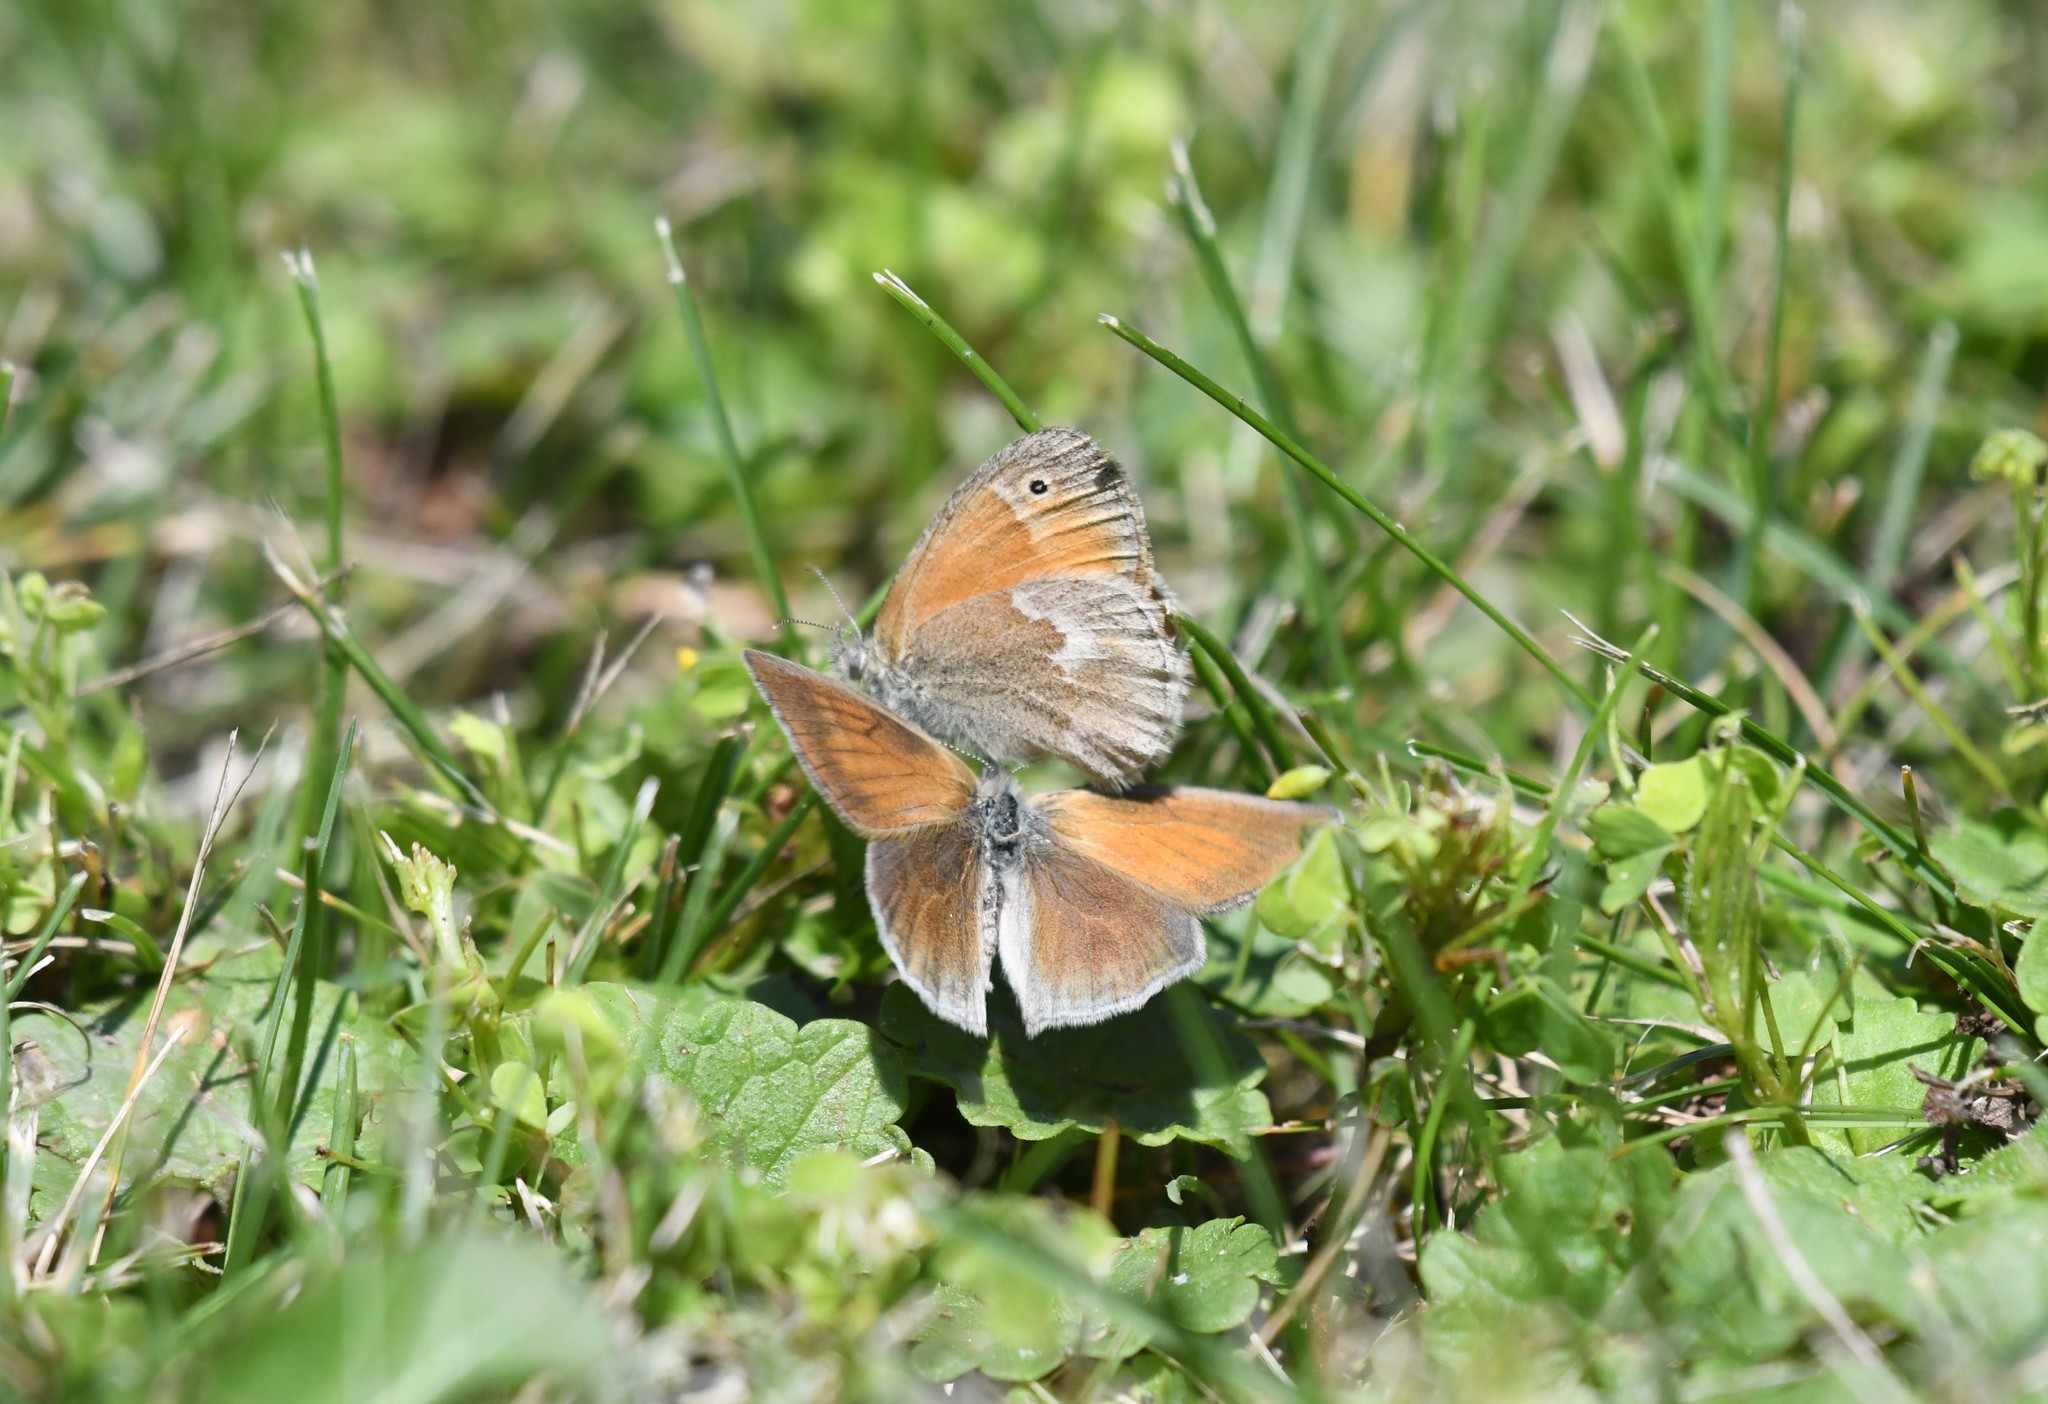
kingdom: Animalia
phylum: Arthropoda
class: Insecta
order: Lepidoptera
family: Nymphalidae
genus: Coenonympha
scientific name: Coenonympha california
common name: Common ringlet
